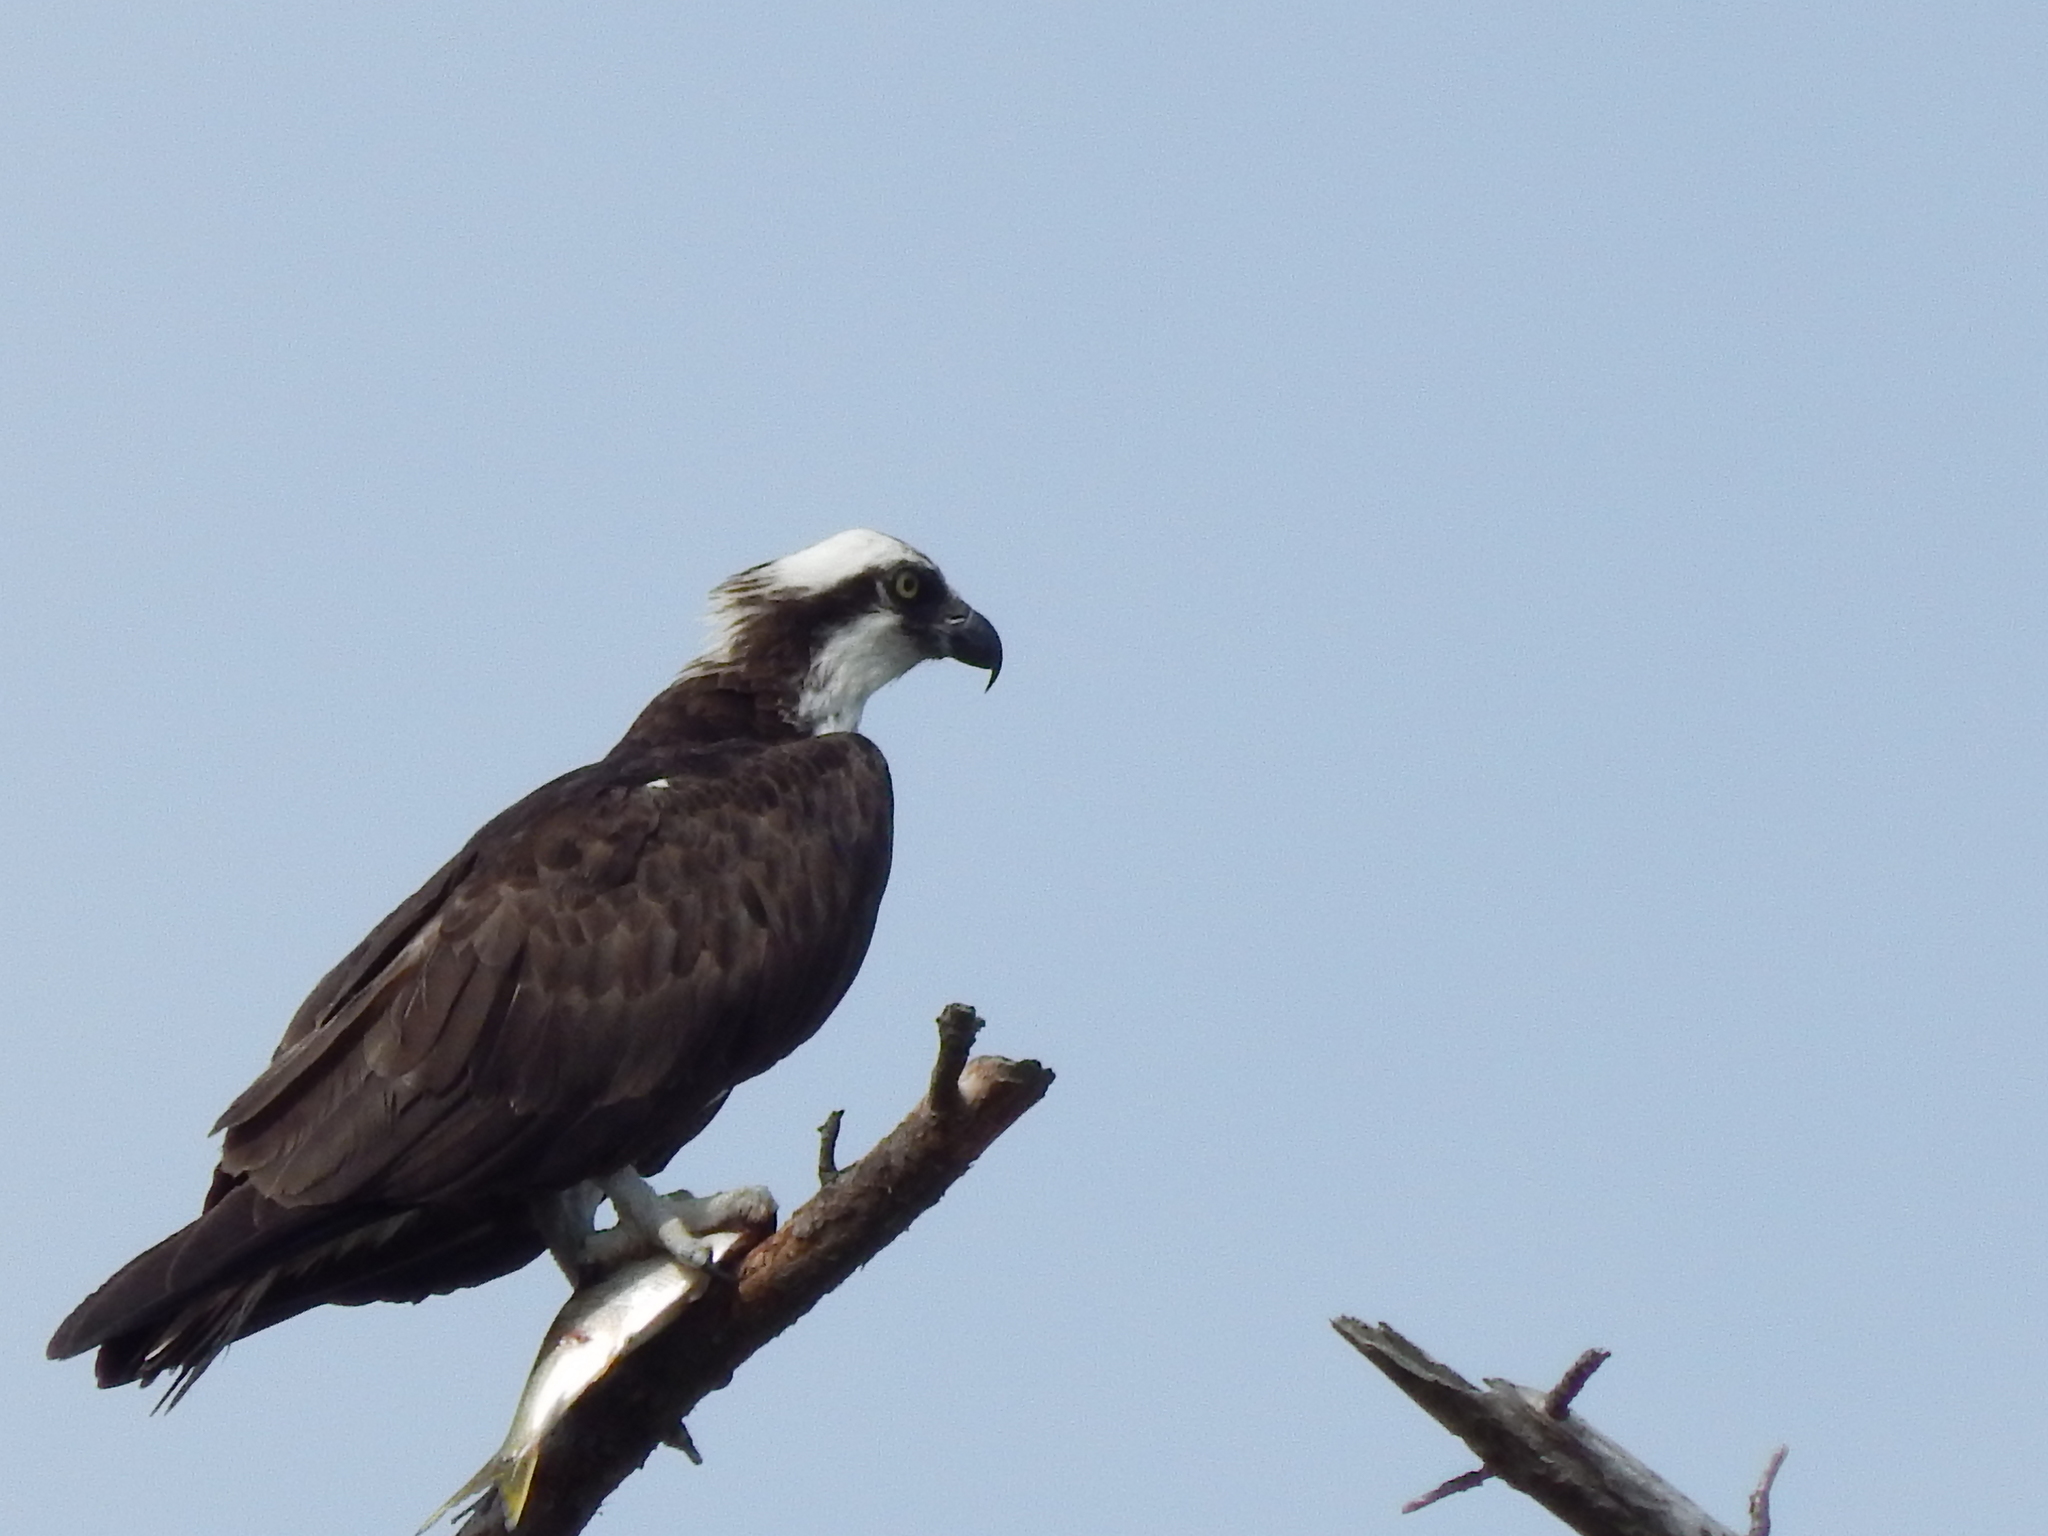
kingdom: Animalia
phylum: Chordata
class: Aves
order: Accipitriformes
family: Pandionidae
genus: Pandion
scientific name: Pandion haliaetus
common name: Osprey
